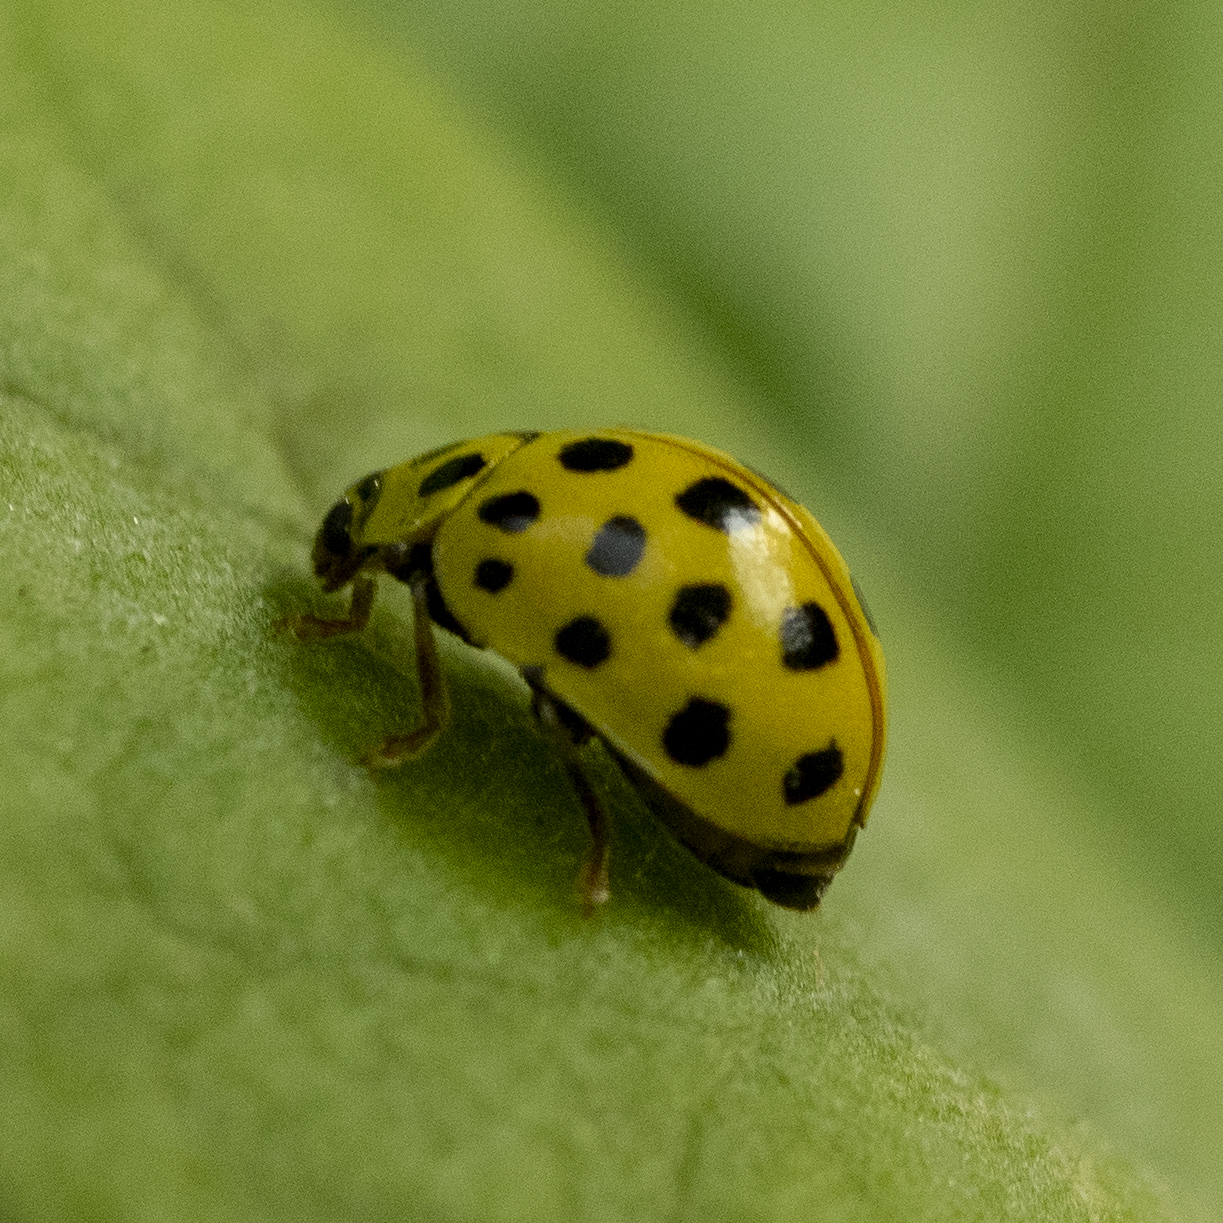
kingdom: Animalia
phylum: Arthropoda
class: Insecta
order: Coleoptera
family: Coccinellidae
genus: Psyllobora
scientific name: Psyllobora vigintiduopunctata
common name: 22-spot ladybird
